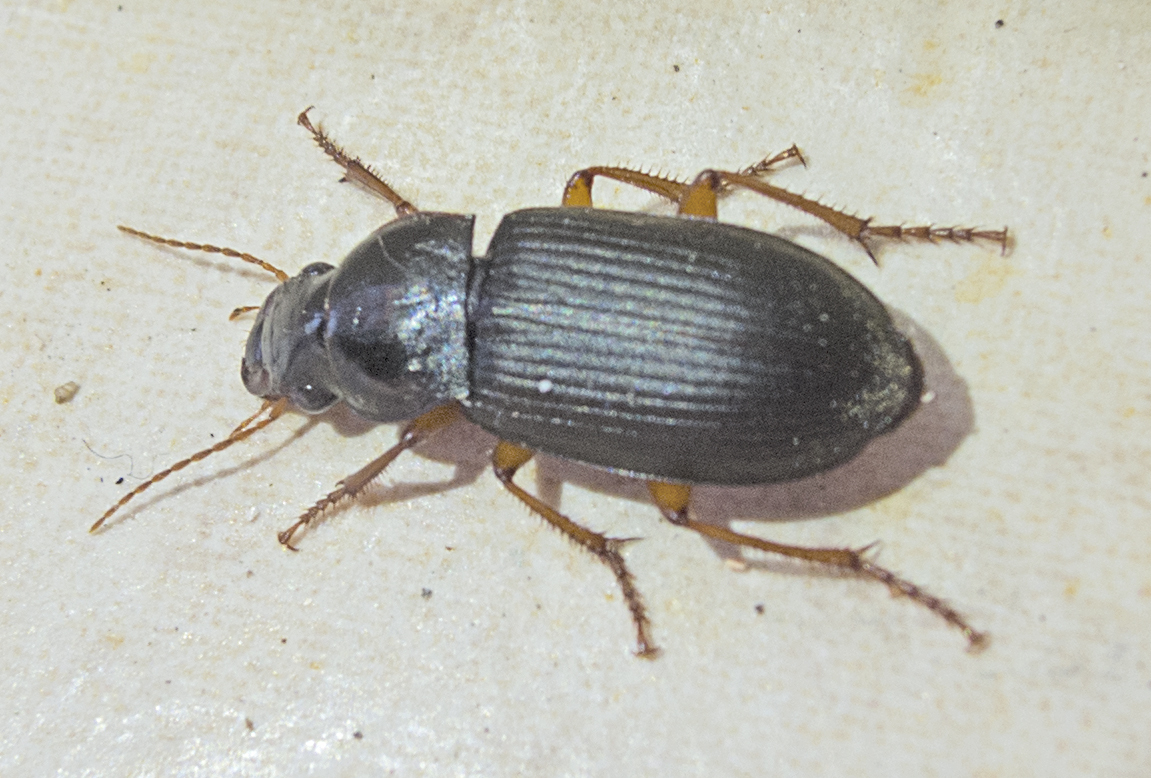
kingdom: Animalia
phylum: Arthropoda
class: Insecta
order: Coleoptera
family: Carabidae
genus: Harpalus
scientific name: Harpalus rufipes
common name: Strawberry harp ground beetle
